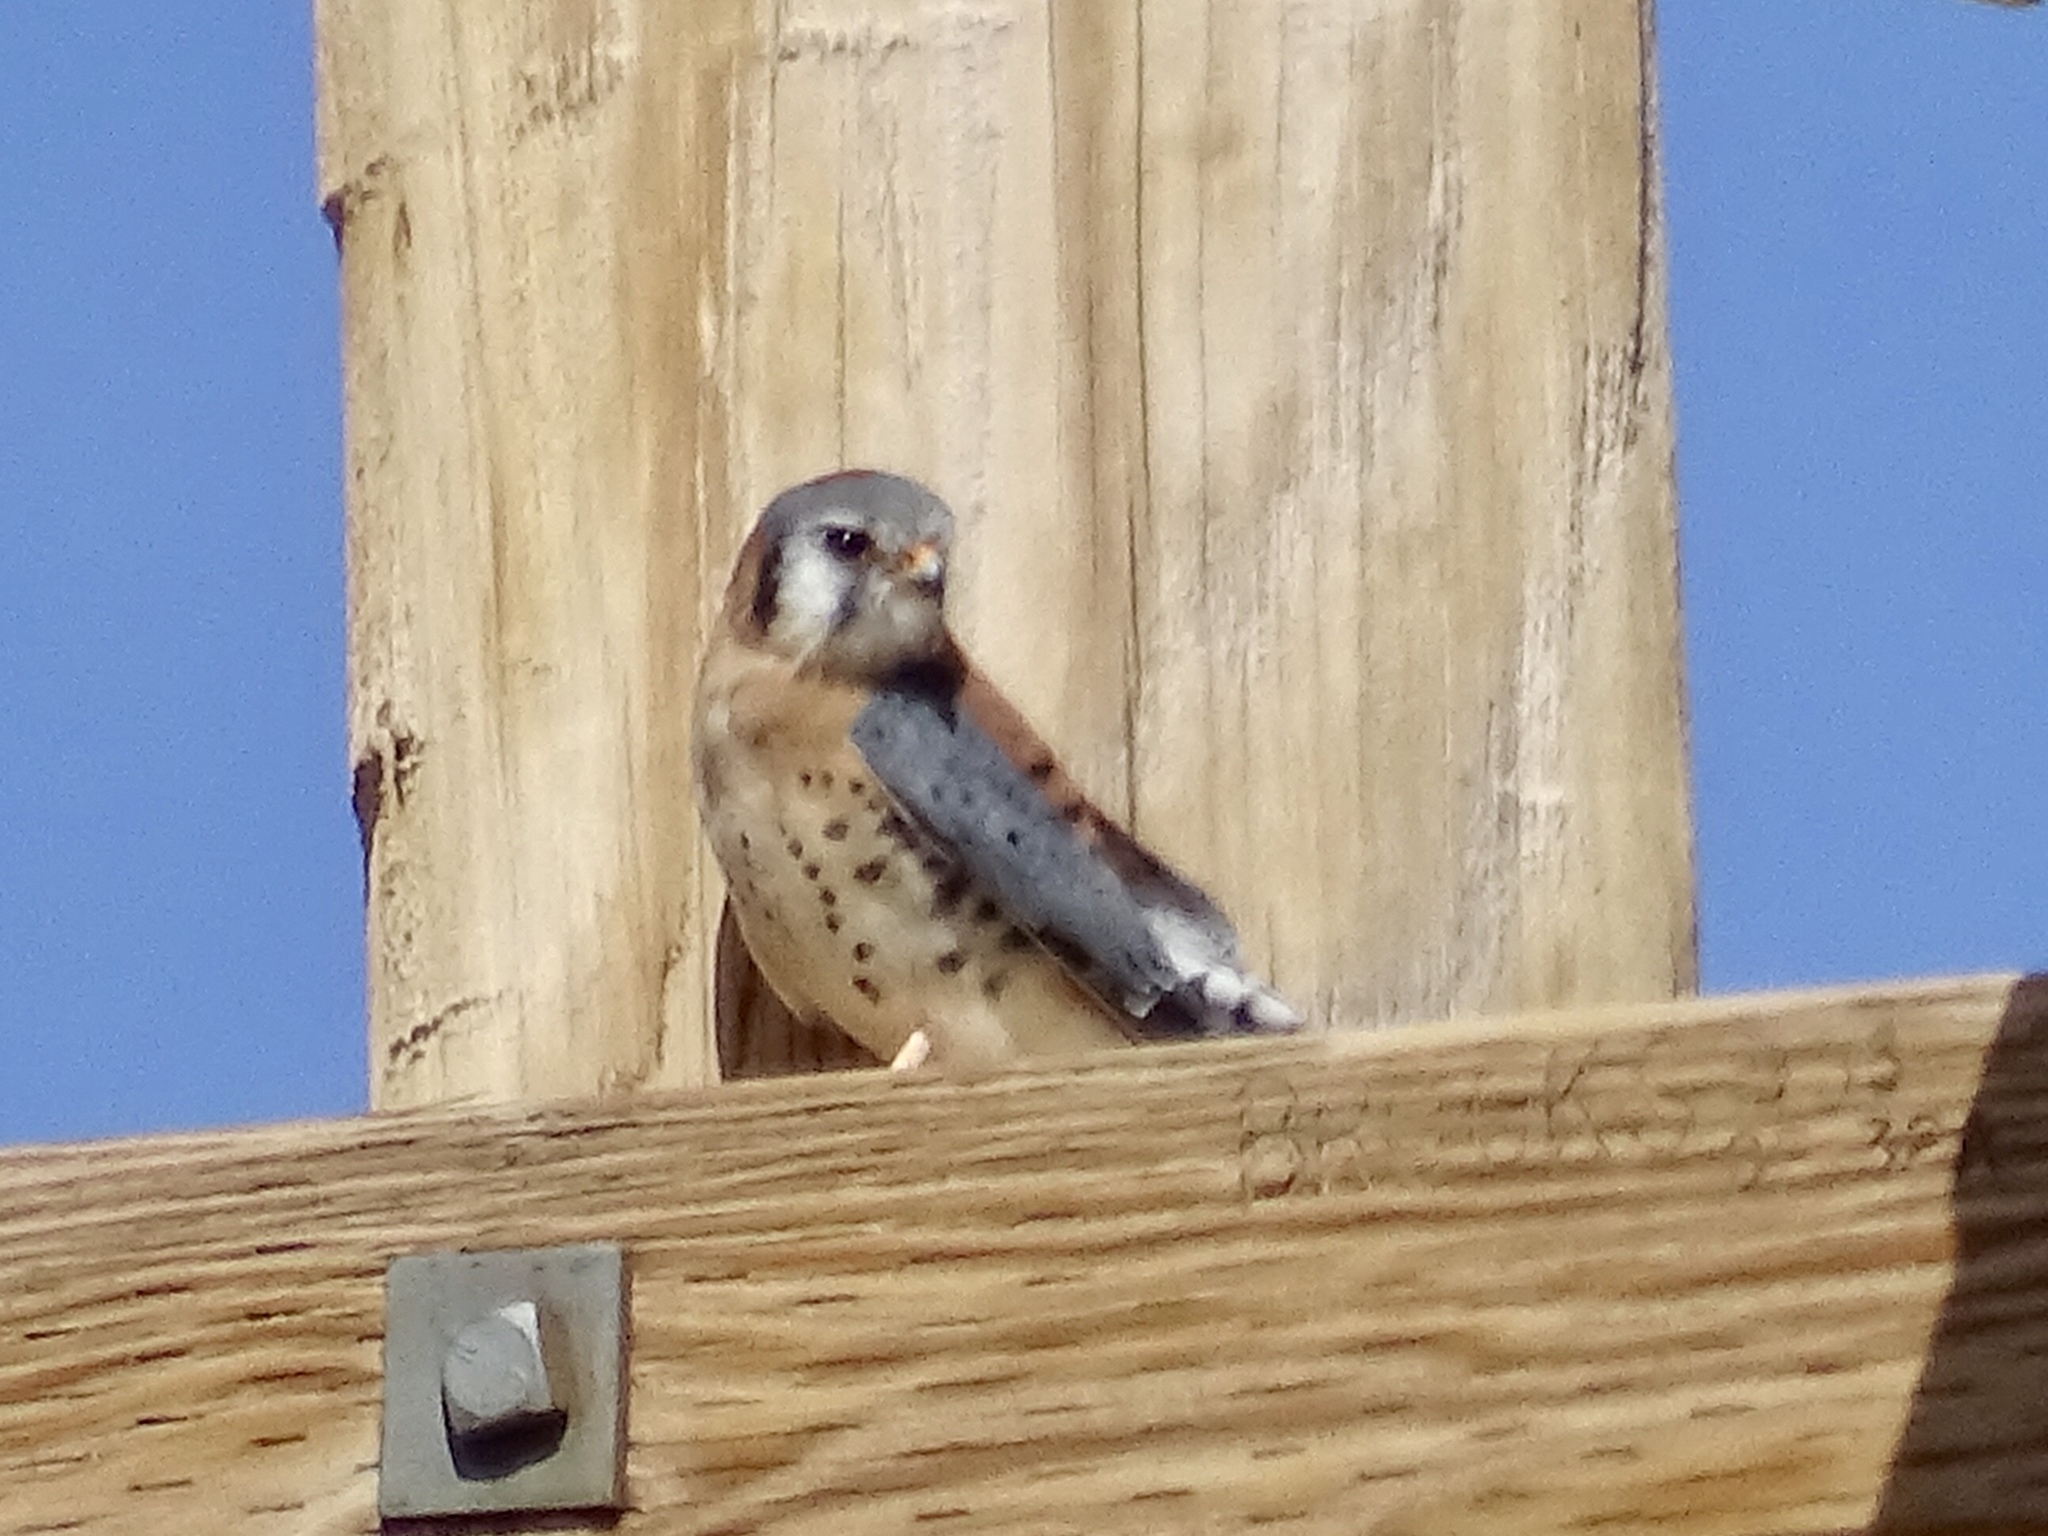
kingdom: Animalia
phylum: Chordata
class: Aves
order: Falconiformes
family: Falconidae
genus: Falco
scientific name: Falco sparverius
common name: American kestrel
